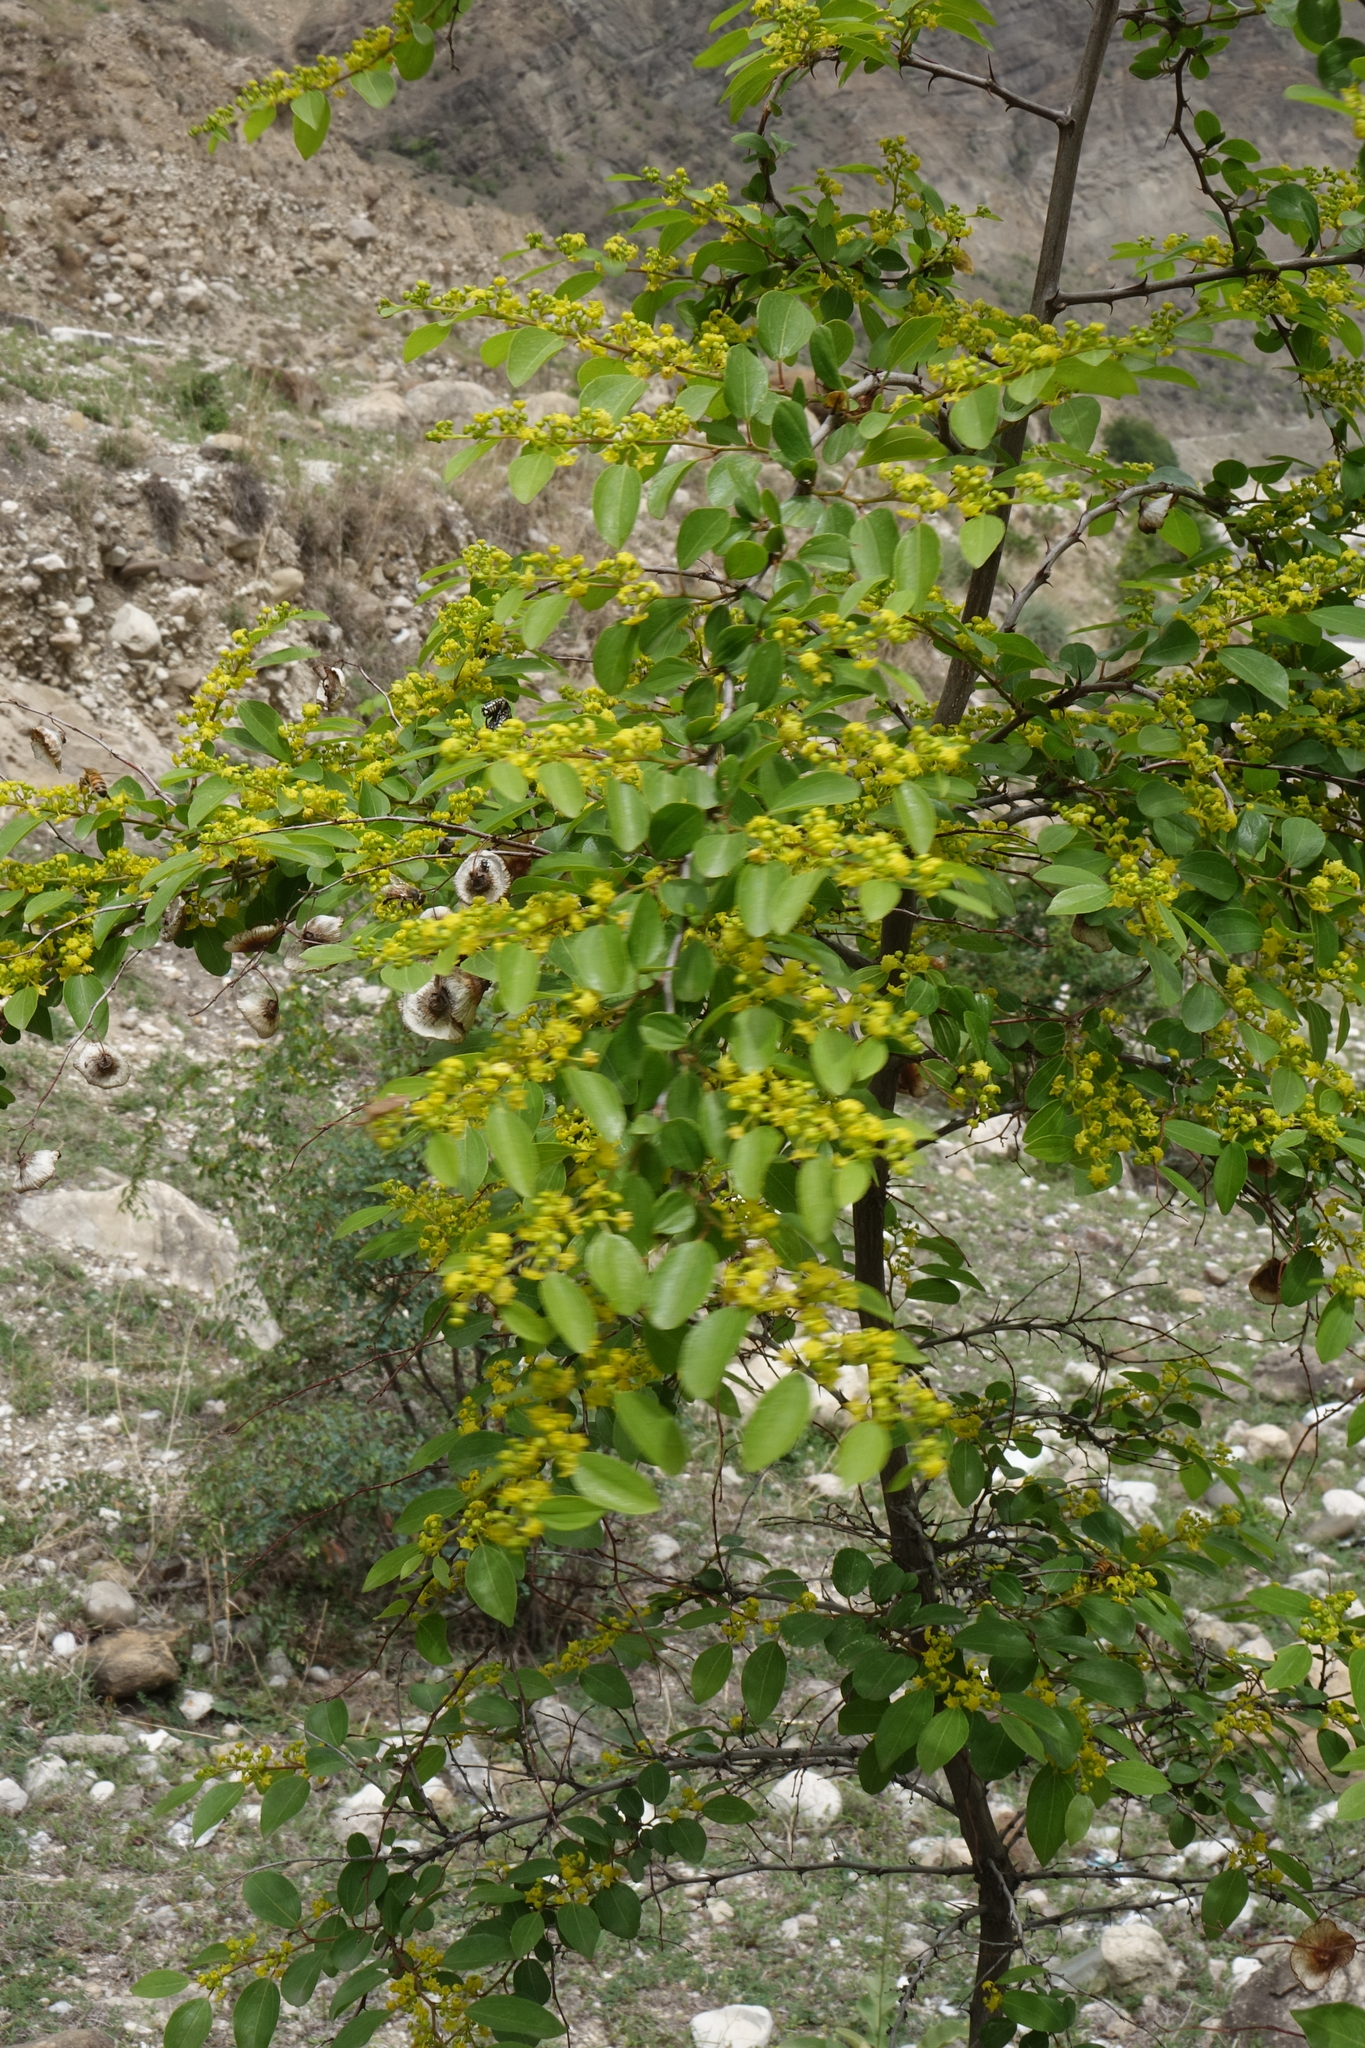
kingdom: Plantae
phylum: Tracheophyta
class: Magnoliopsida
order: Rosales
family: Rhamnaceae
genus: Paliurus
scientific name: Paliurus spina-christi
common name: Jeruselem thorn
